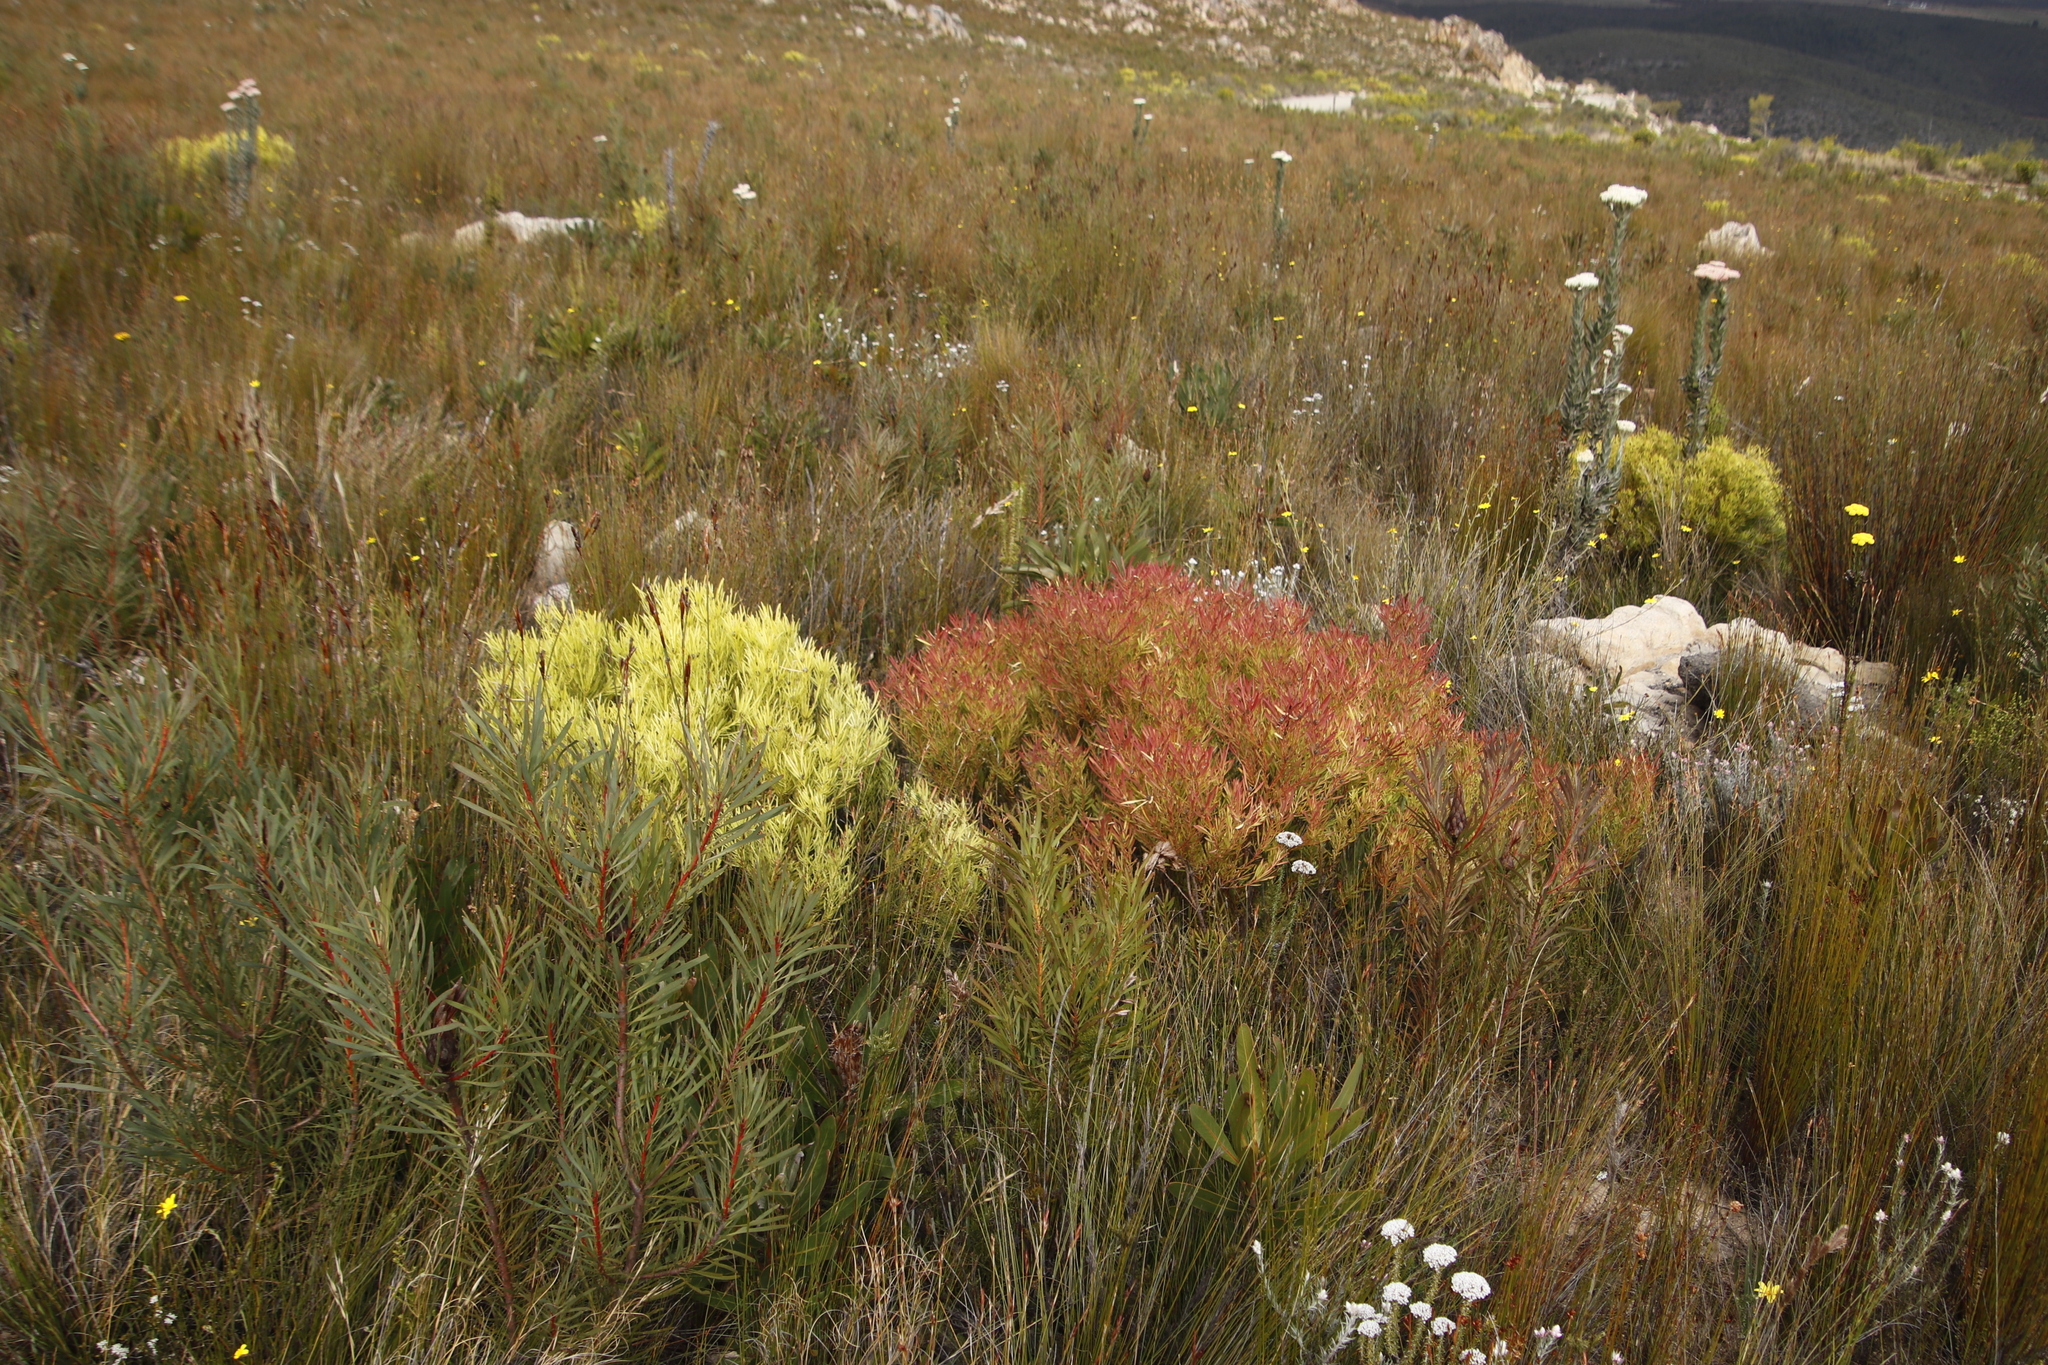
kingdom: Plantae
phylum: Tracheophyta
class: Magnoliopsida
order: Proteales
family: Proteaceae
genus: Leucadendron
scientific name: Leucadendron salignum
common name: Common sunshine conebush
